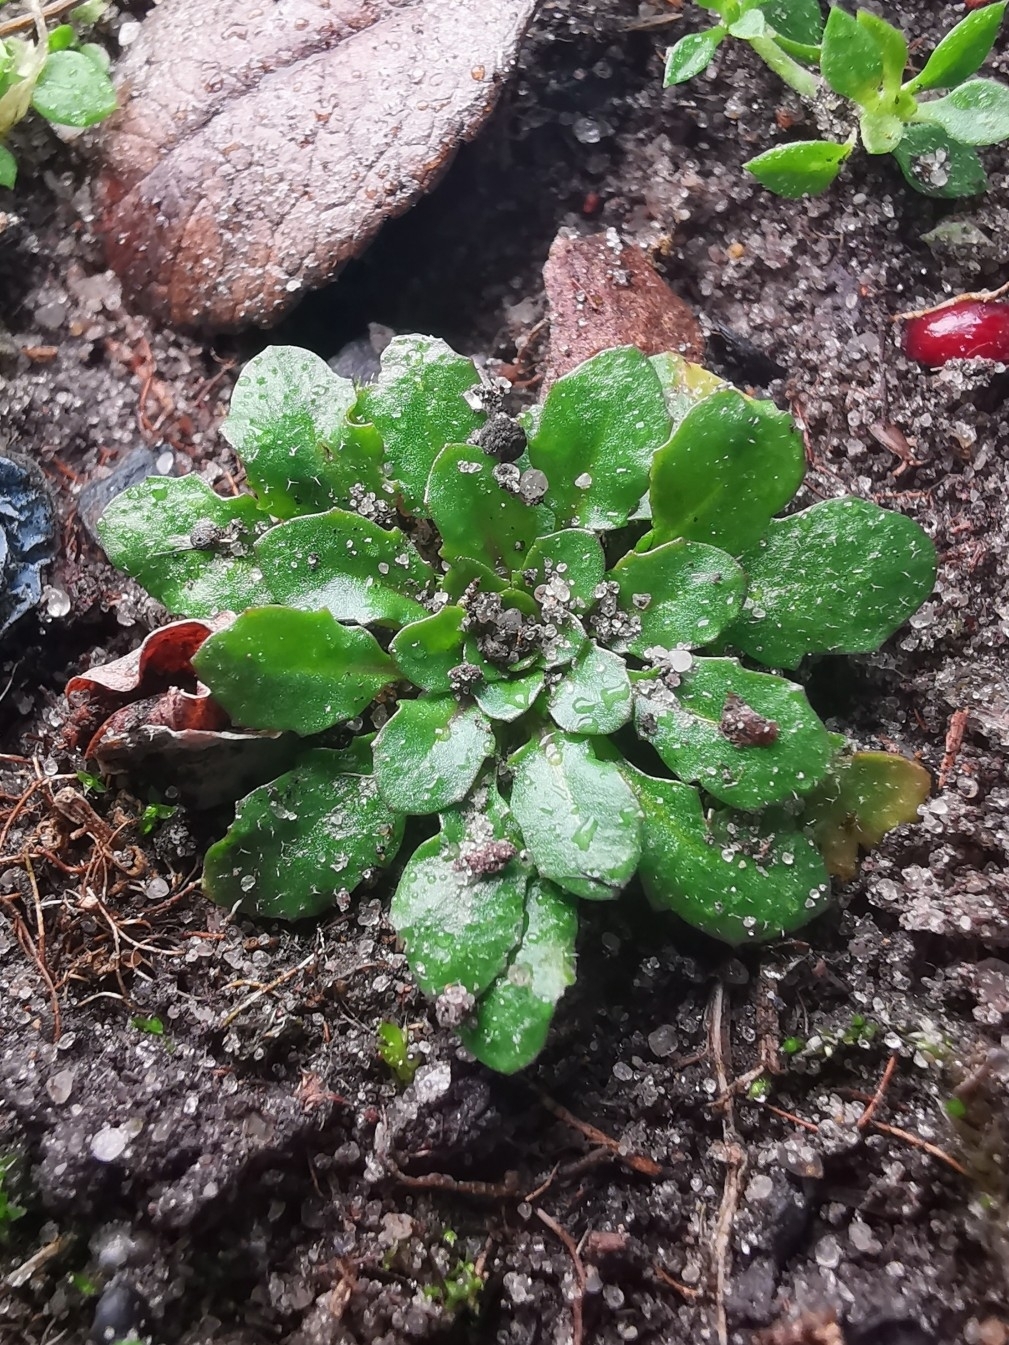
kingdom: Plantae
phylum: Tracheophyta
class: Magnoliopsida
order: Brassicales
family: Brassicaceae
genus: Arabidopsis
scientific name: Arabidopsis thaliana
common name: Thale cress
